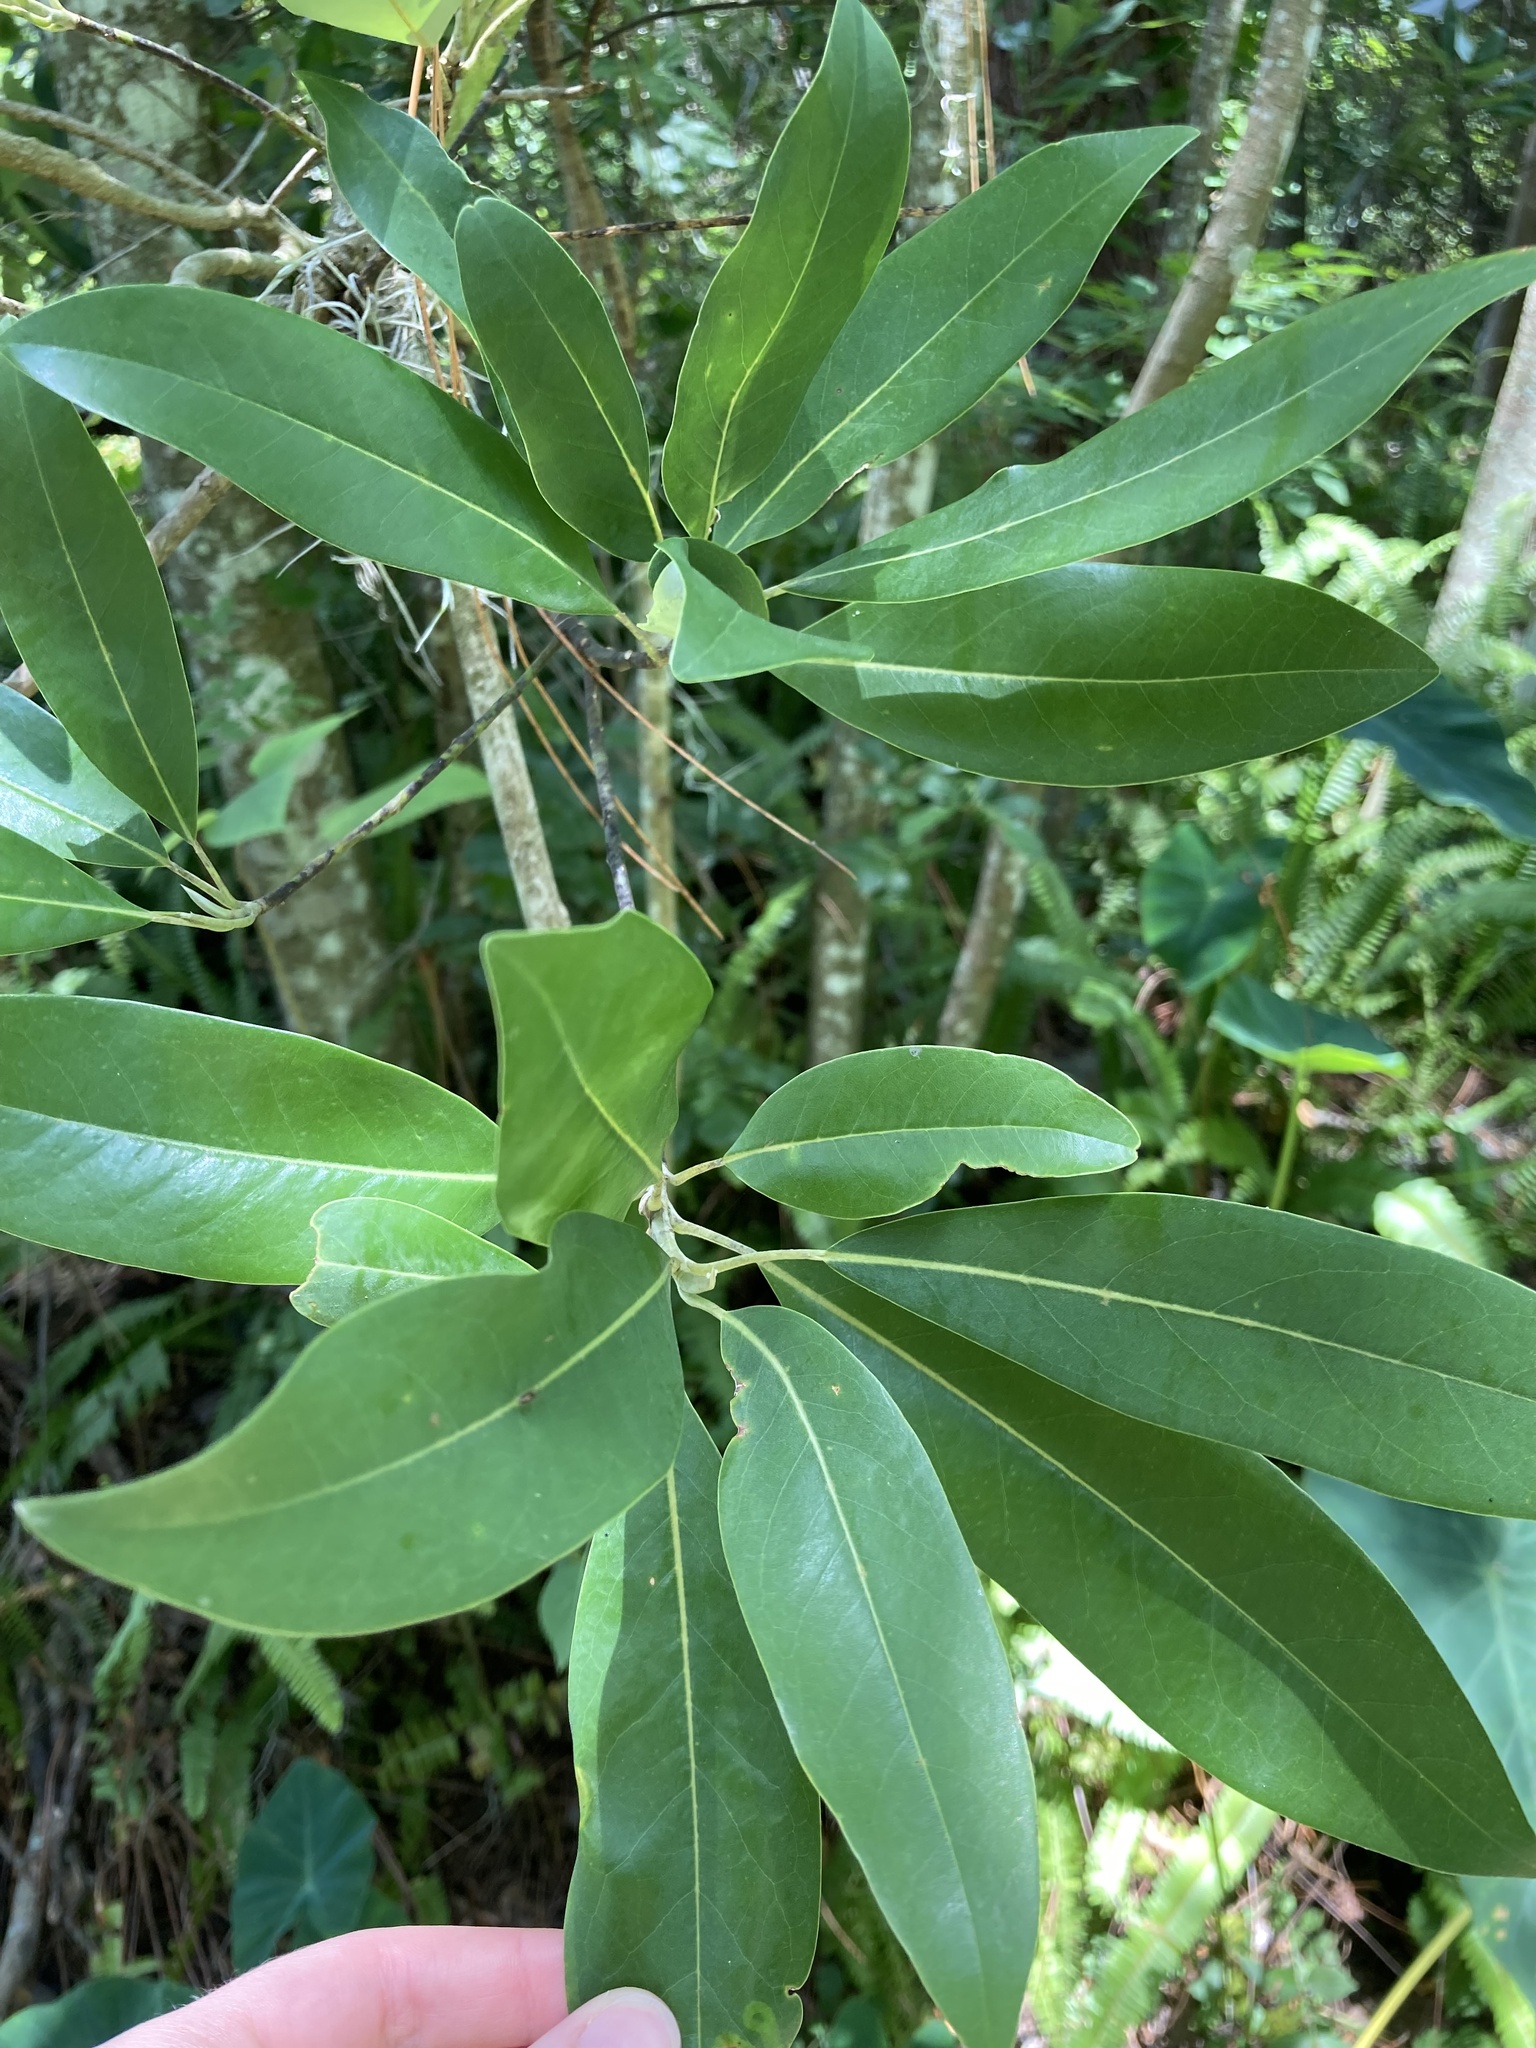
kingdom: Plantae
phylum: Tracheophyta
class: Magnoliopsida
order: Magnoliales
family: Magnoliaceae
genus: Magnolia
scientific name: Magnolia virginiana
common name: Swamp bay
